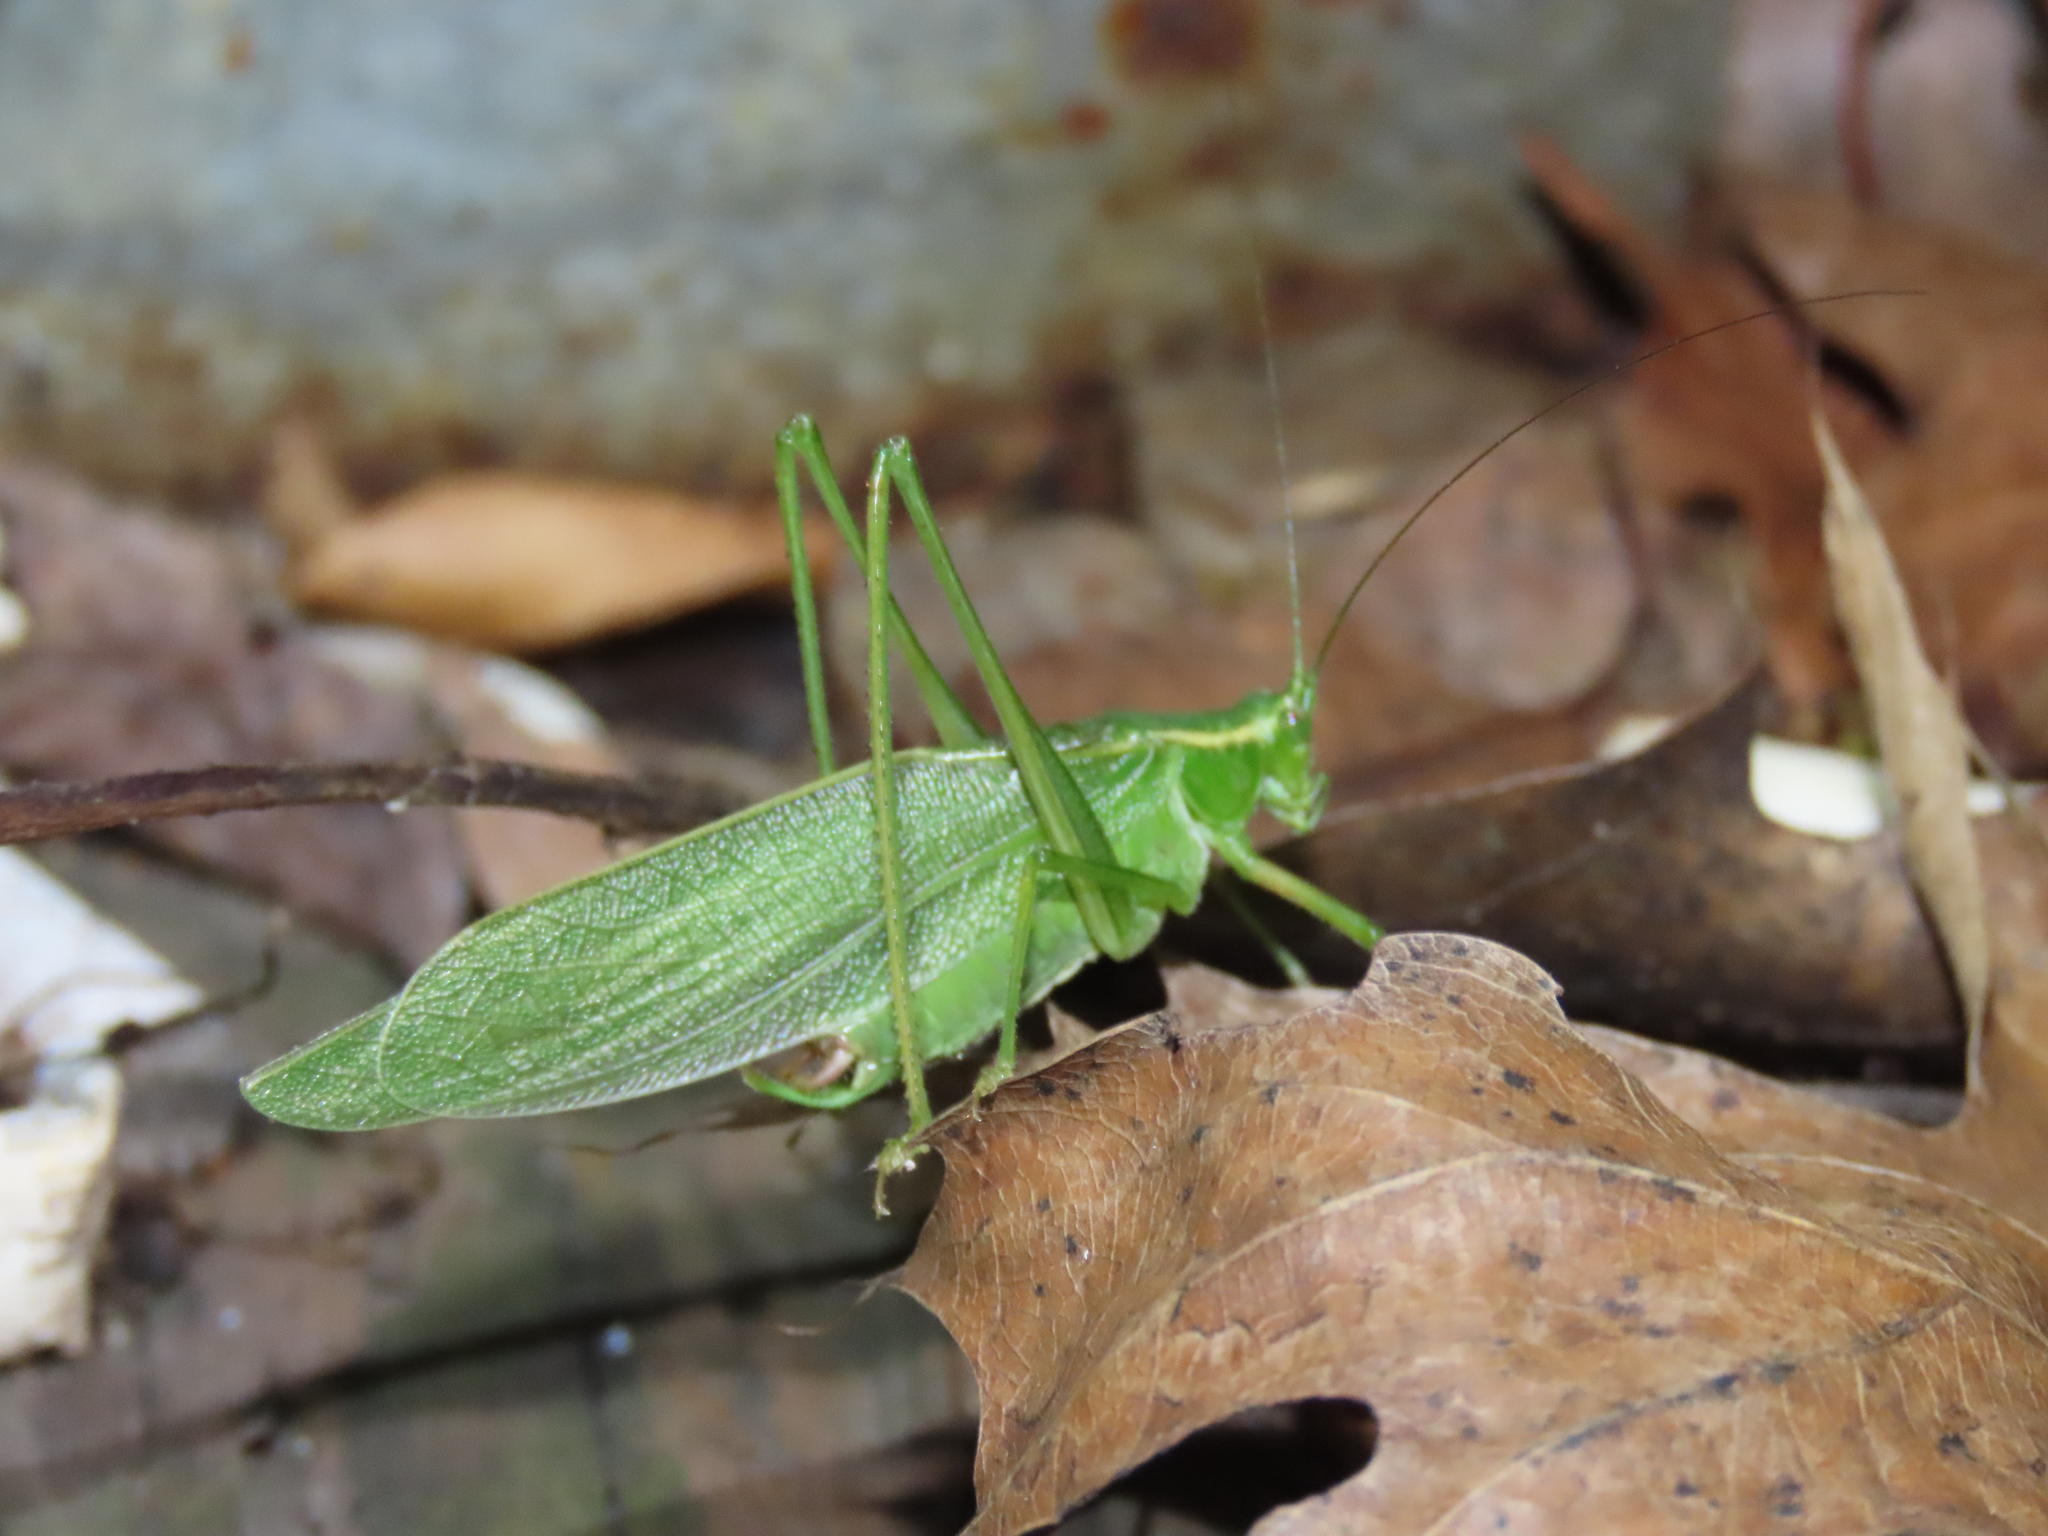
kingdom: Animalia
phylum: Arthropoda
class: Insecta
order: Orthoptera
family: Tettigoniidae
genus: Scudderia
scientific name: Scudderia septentrionalis
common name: Northern bush-katydid
